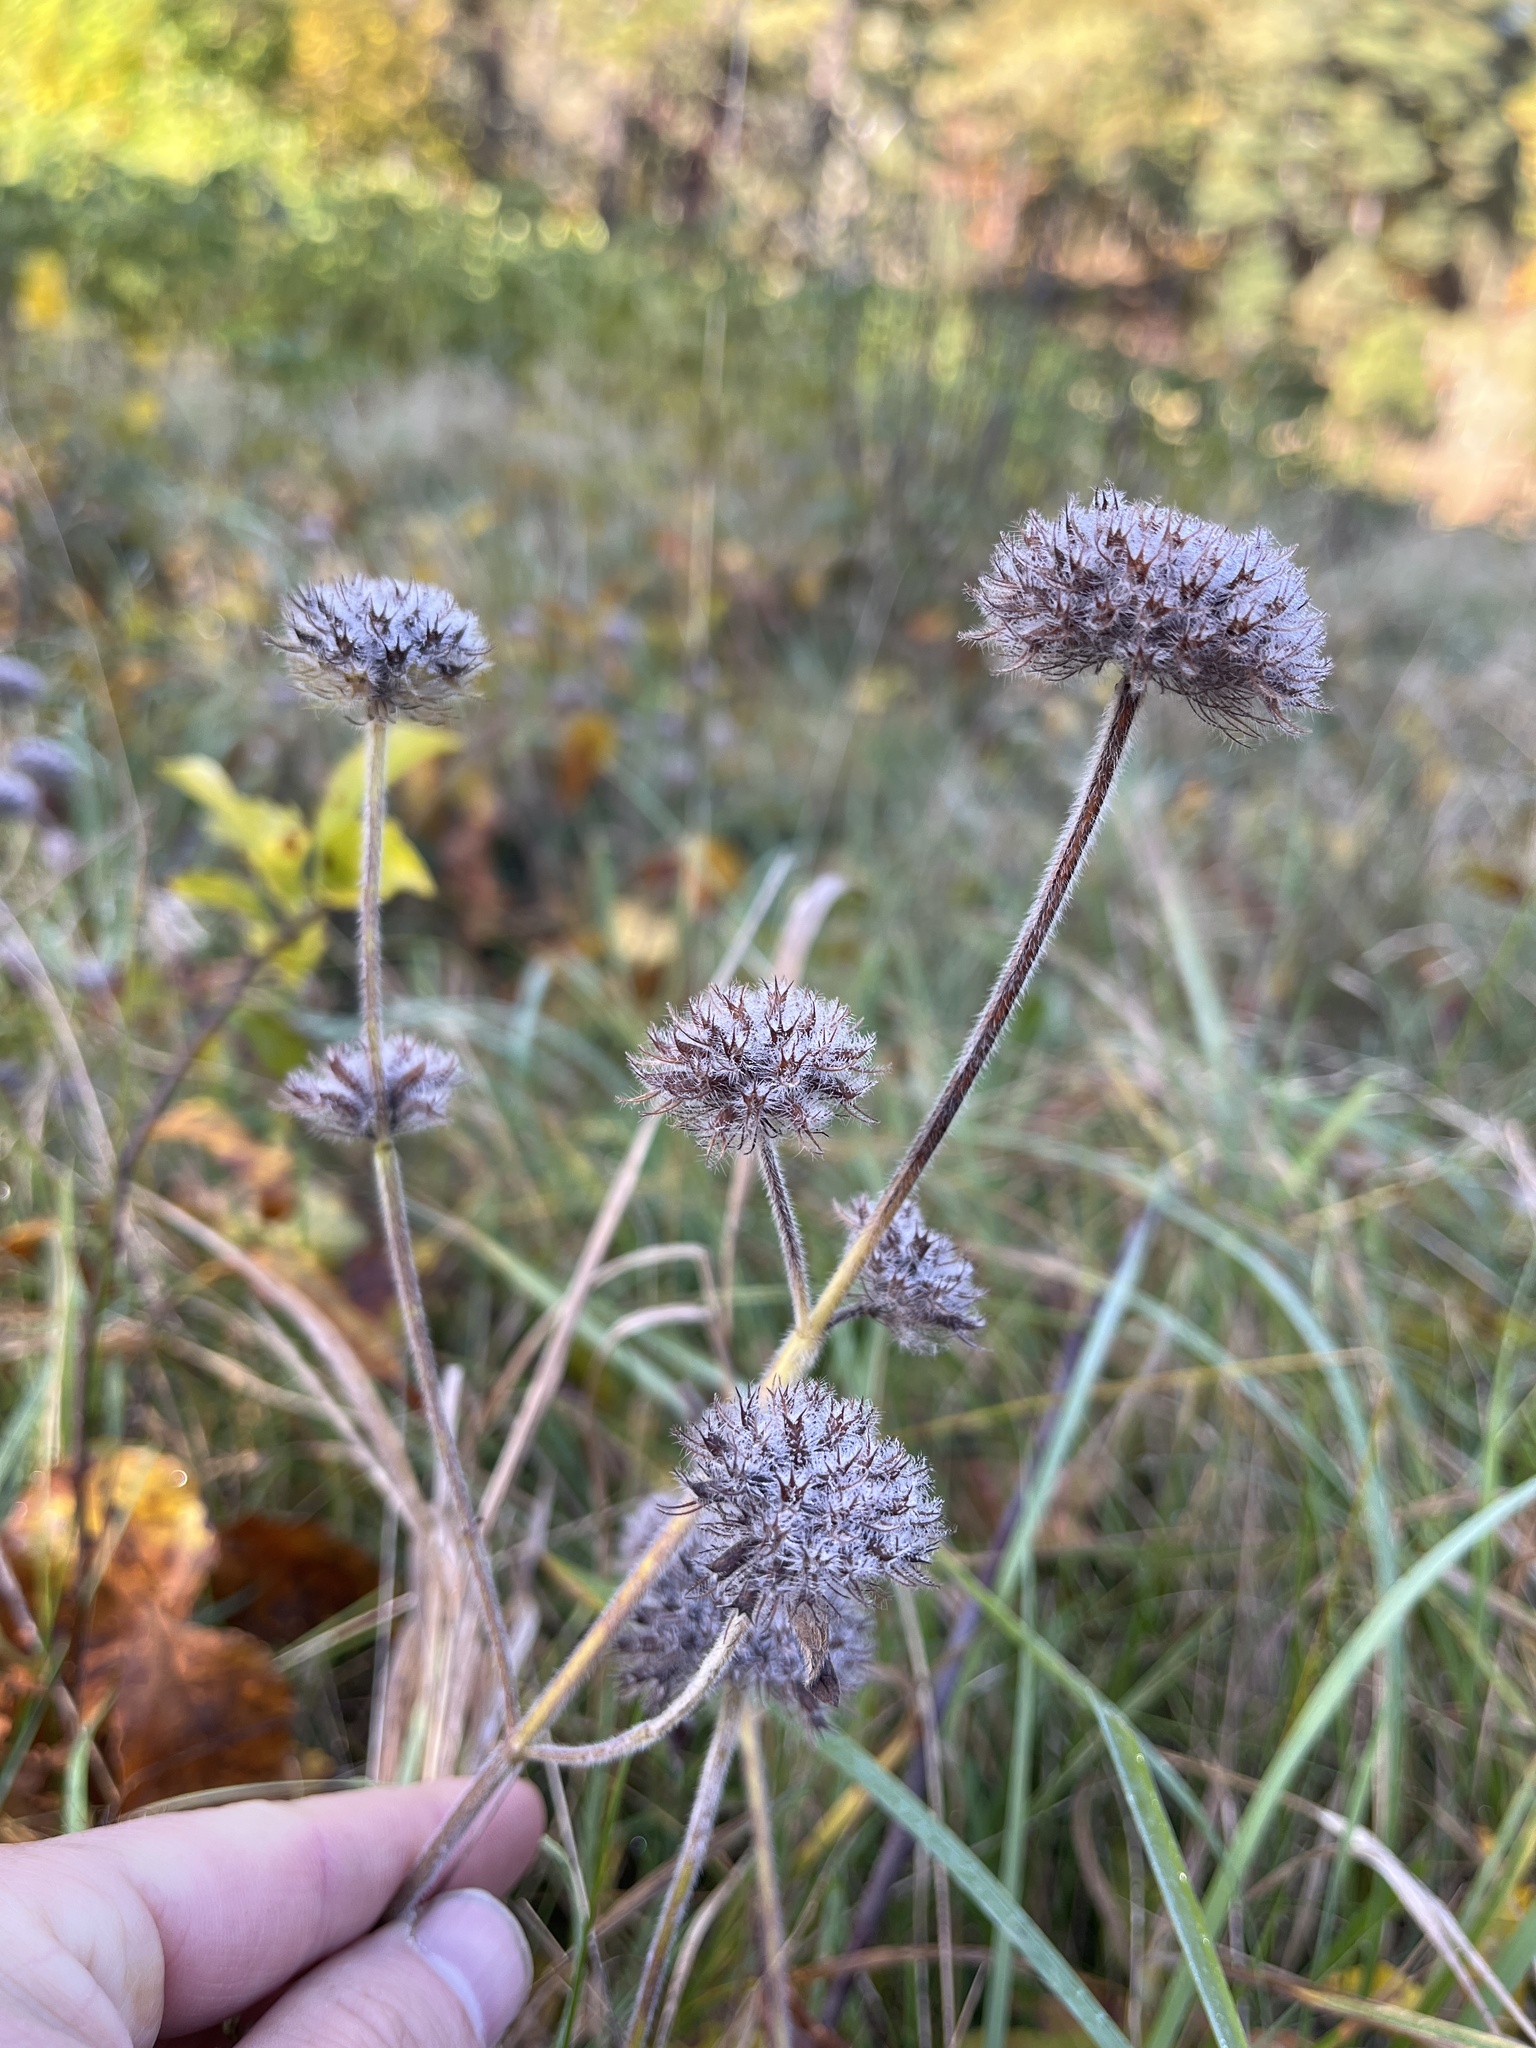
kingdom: Plantae
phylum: Tracheophyta
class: Magnoliopsida
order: Lamiales
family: Lamiaceae
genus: Clinopodium
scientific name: Clinopodium vulgare
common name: Wild basil
